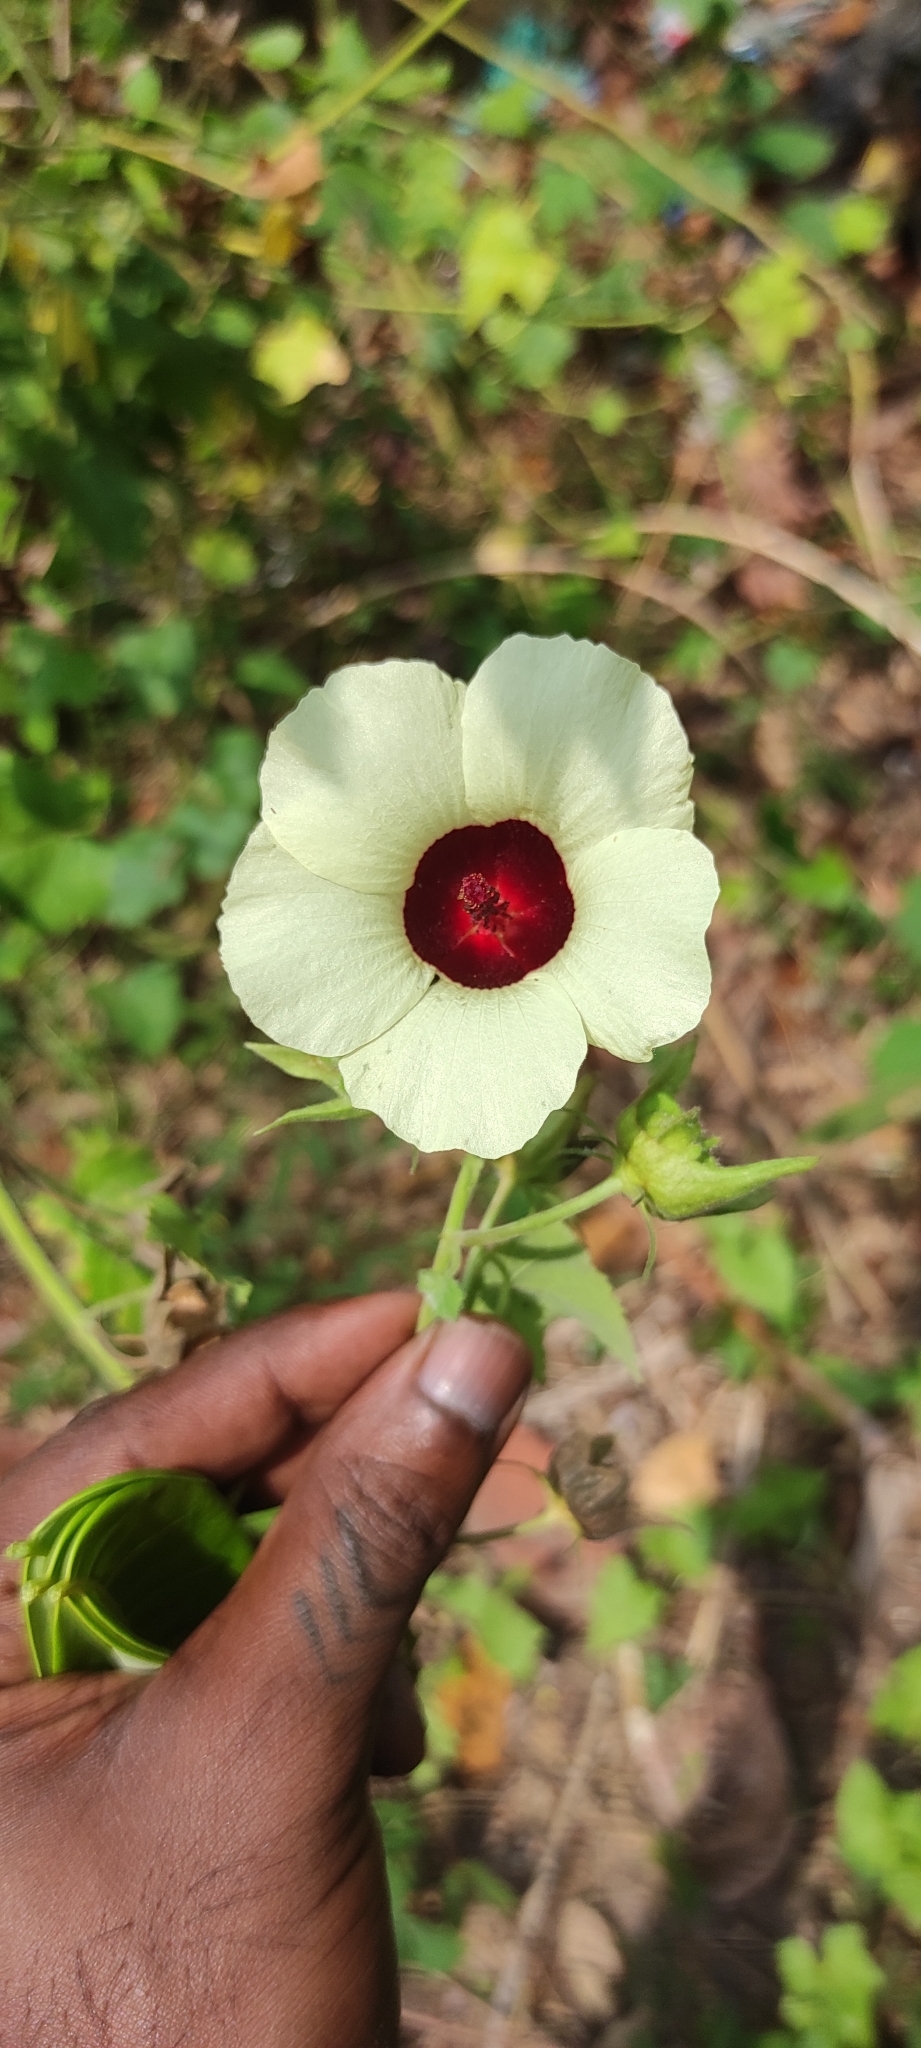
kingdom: Plantae
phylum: Tracheophyta
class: Magnoliopsida
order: Malvales
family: Malvaceae
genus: Hibiscus
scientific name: Hibiscus vitifolius
